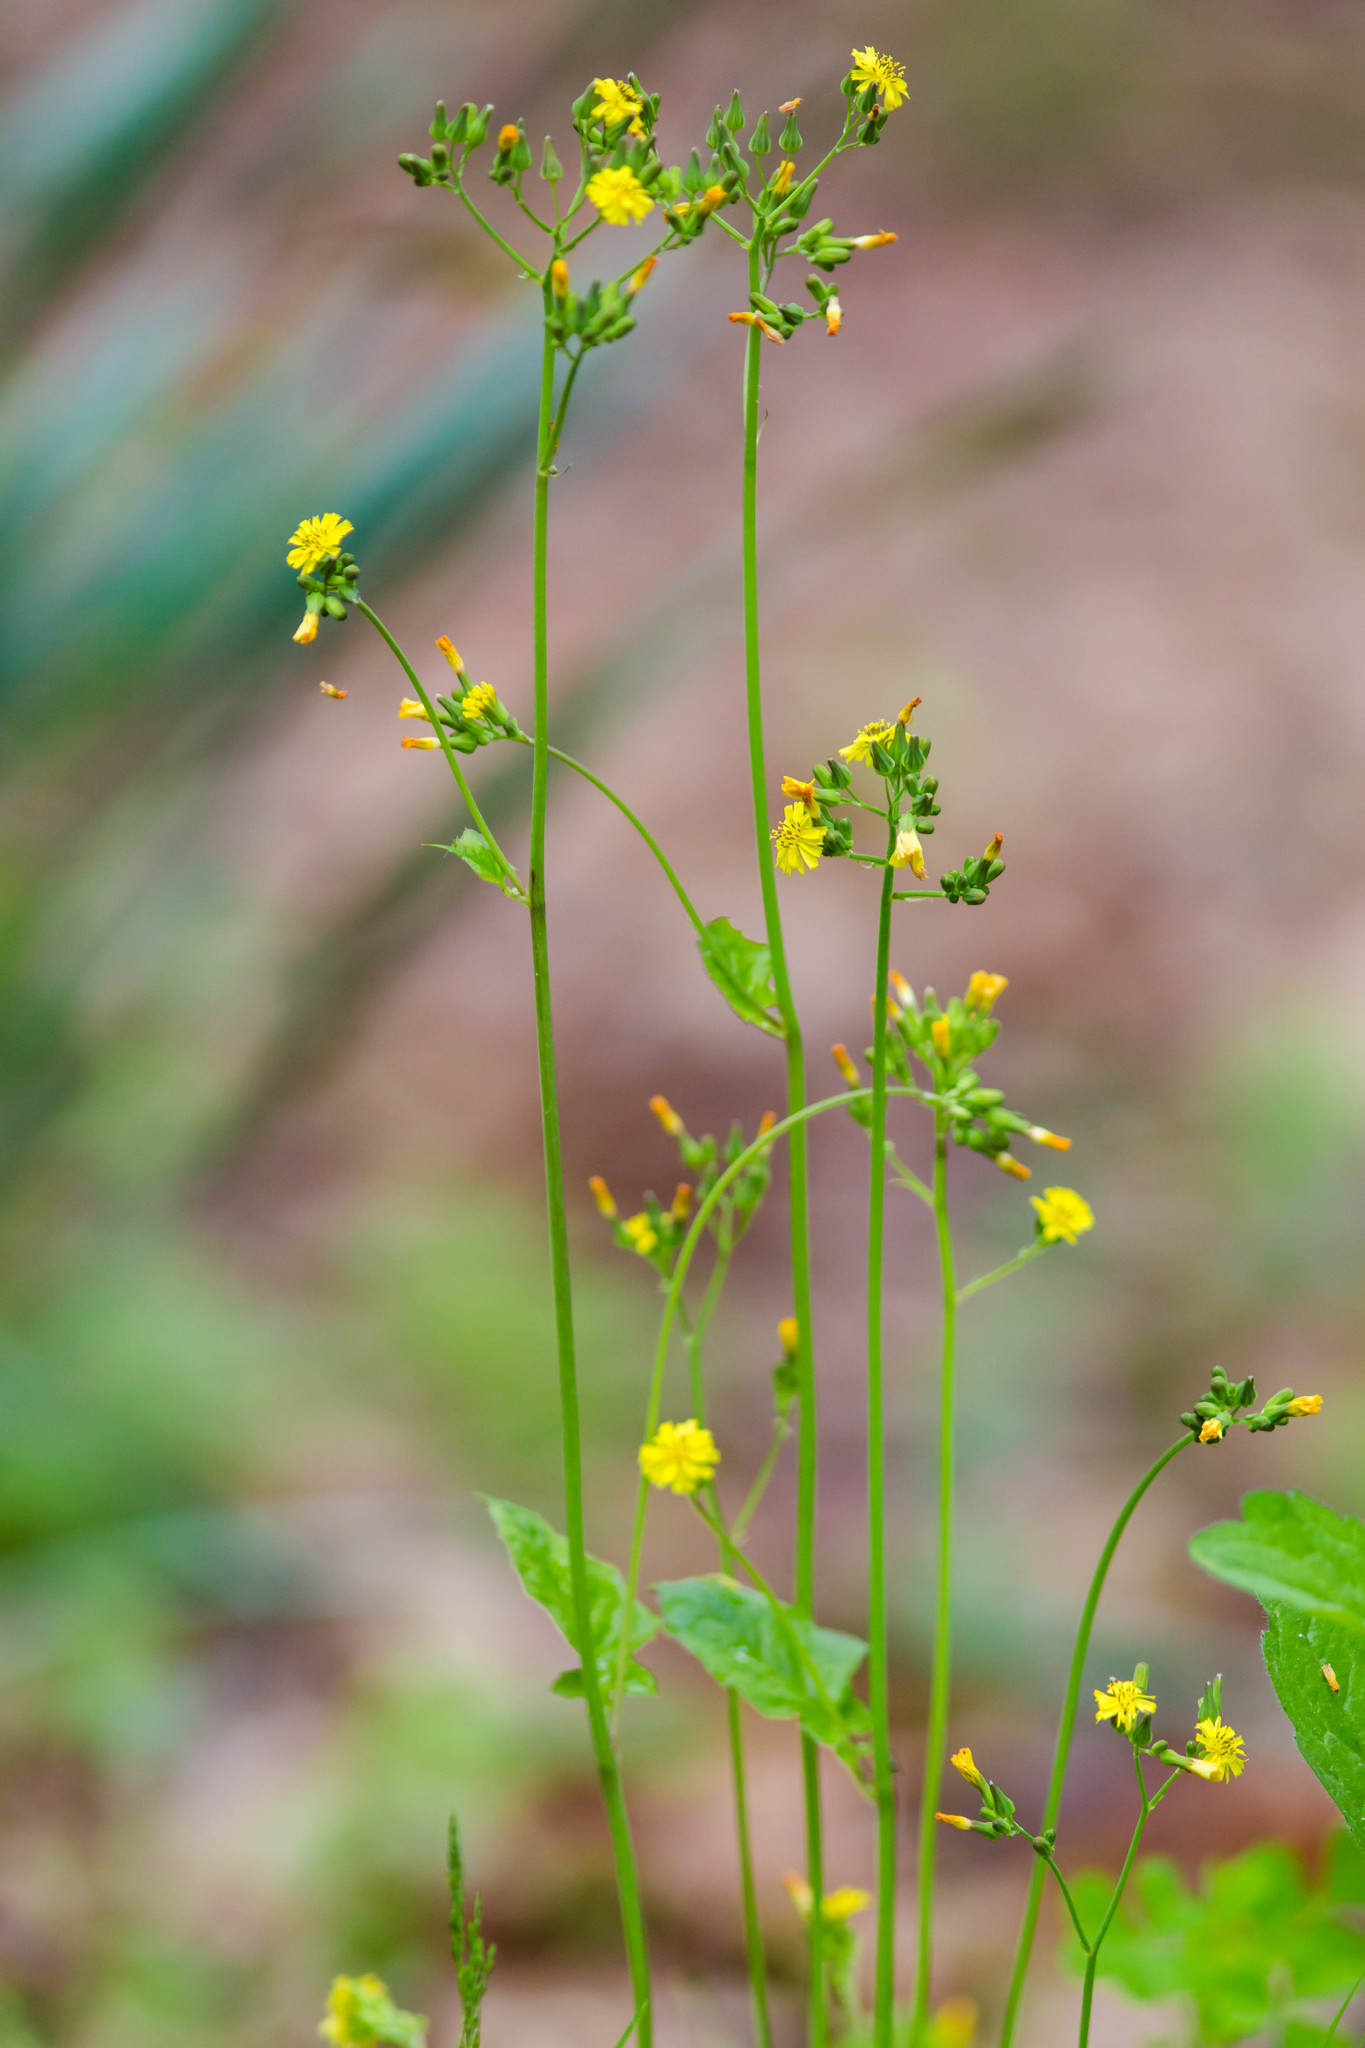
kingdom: Plantae
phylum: Tracheophyta
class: Magnoliopsida
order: Asterales
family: Asteraceae
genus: Youngia
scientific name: Youngia japonica
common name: Oriental false hawksbeard
